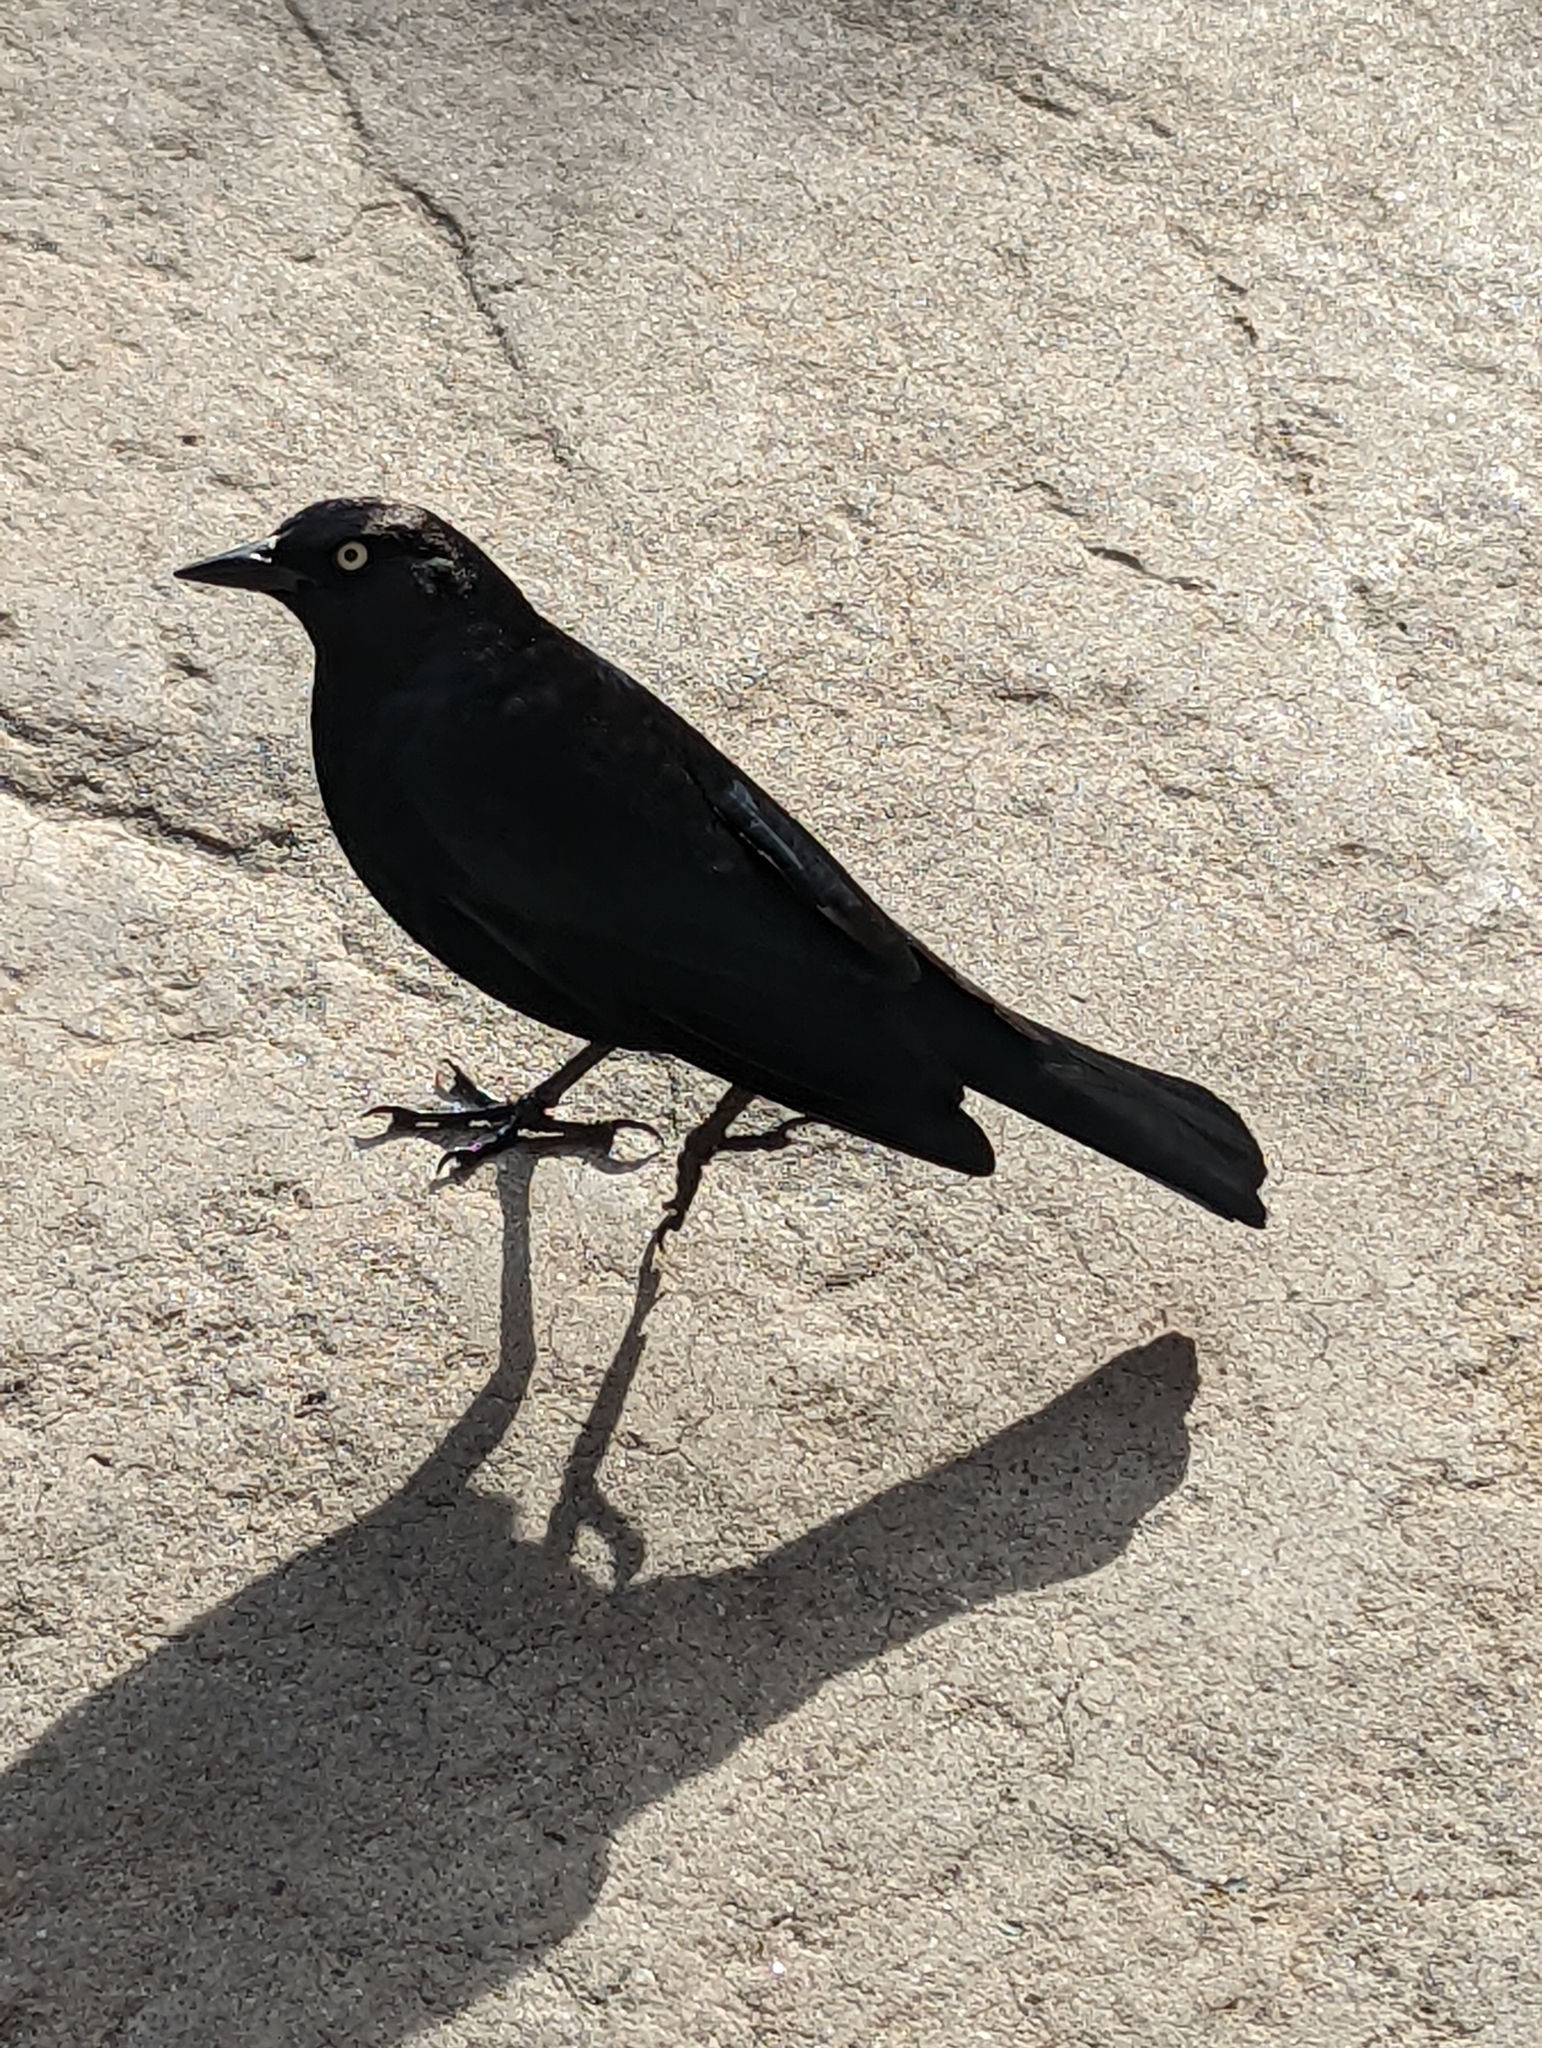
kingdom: Animalia
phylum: Chordata
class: Aves
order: Passeriformes
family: Icteridae
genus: Euphagus
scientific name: Euphagus cyanocephalus
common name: Brewer's blackbird
